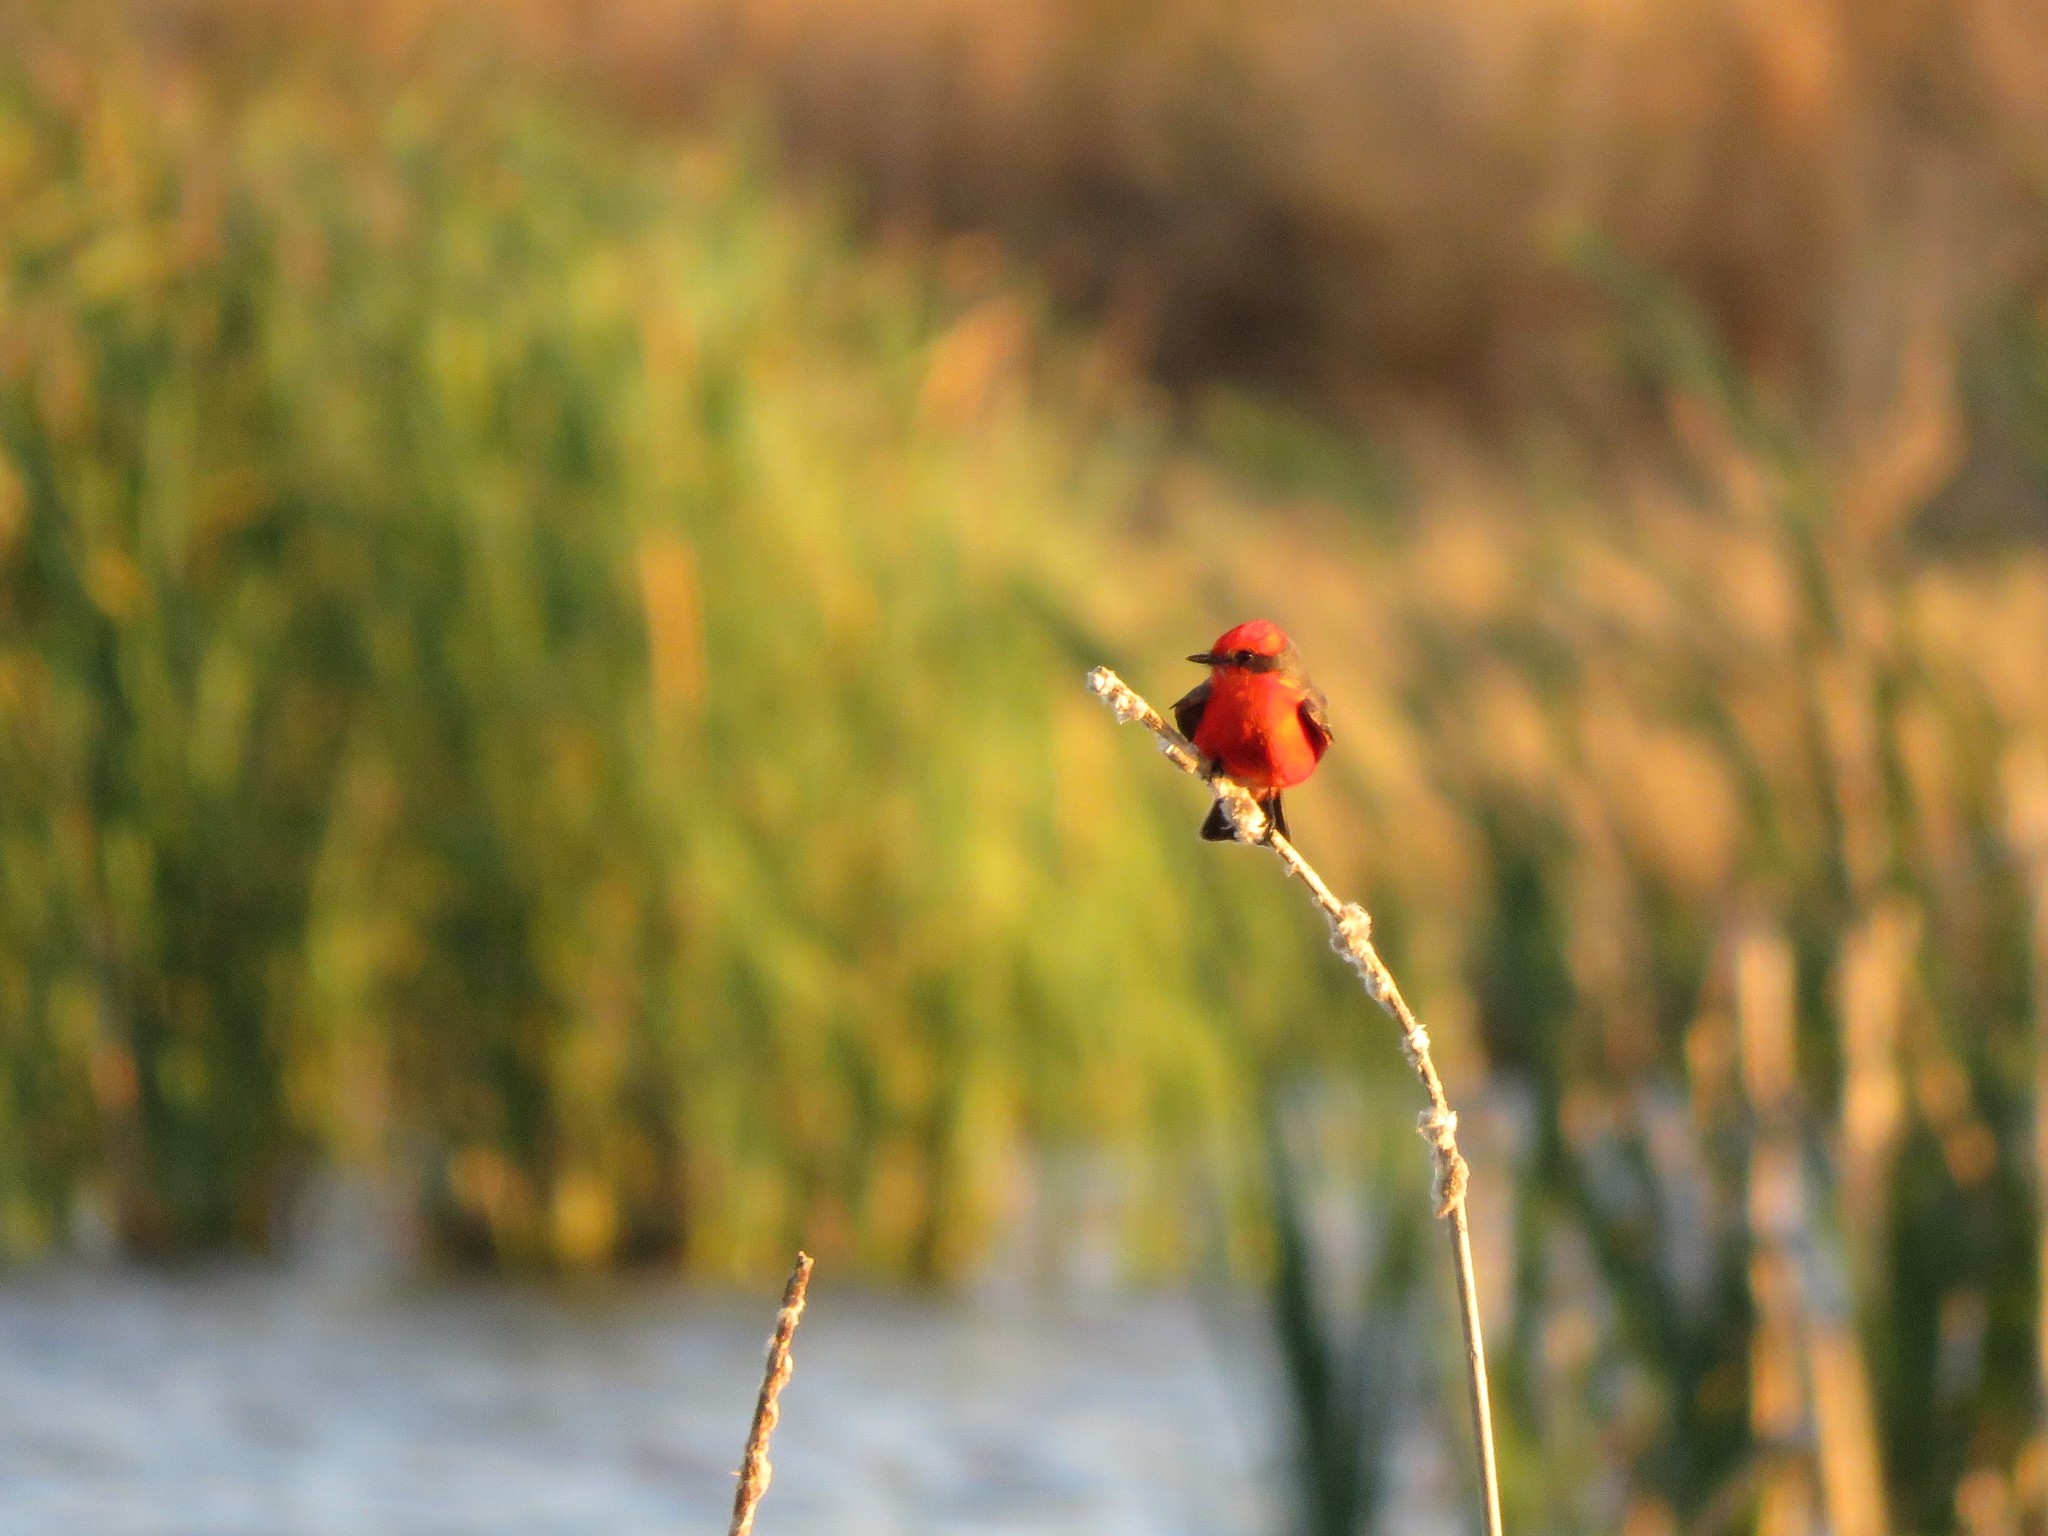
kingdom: Animalia
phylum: Chordata
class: Aves
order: Passeriformes
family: Tyrannidae
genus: Pyrocephalus
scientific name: Pyrocephalus rubinus
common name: Vermilion flycatcher
